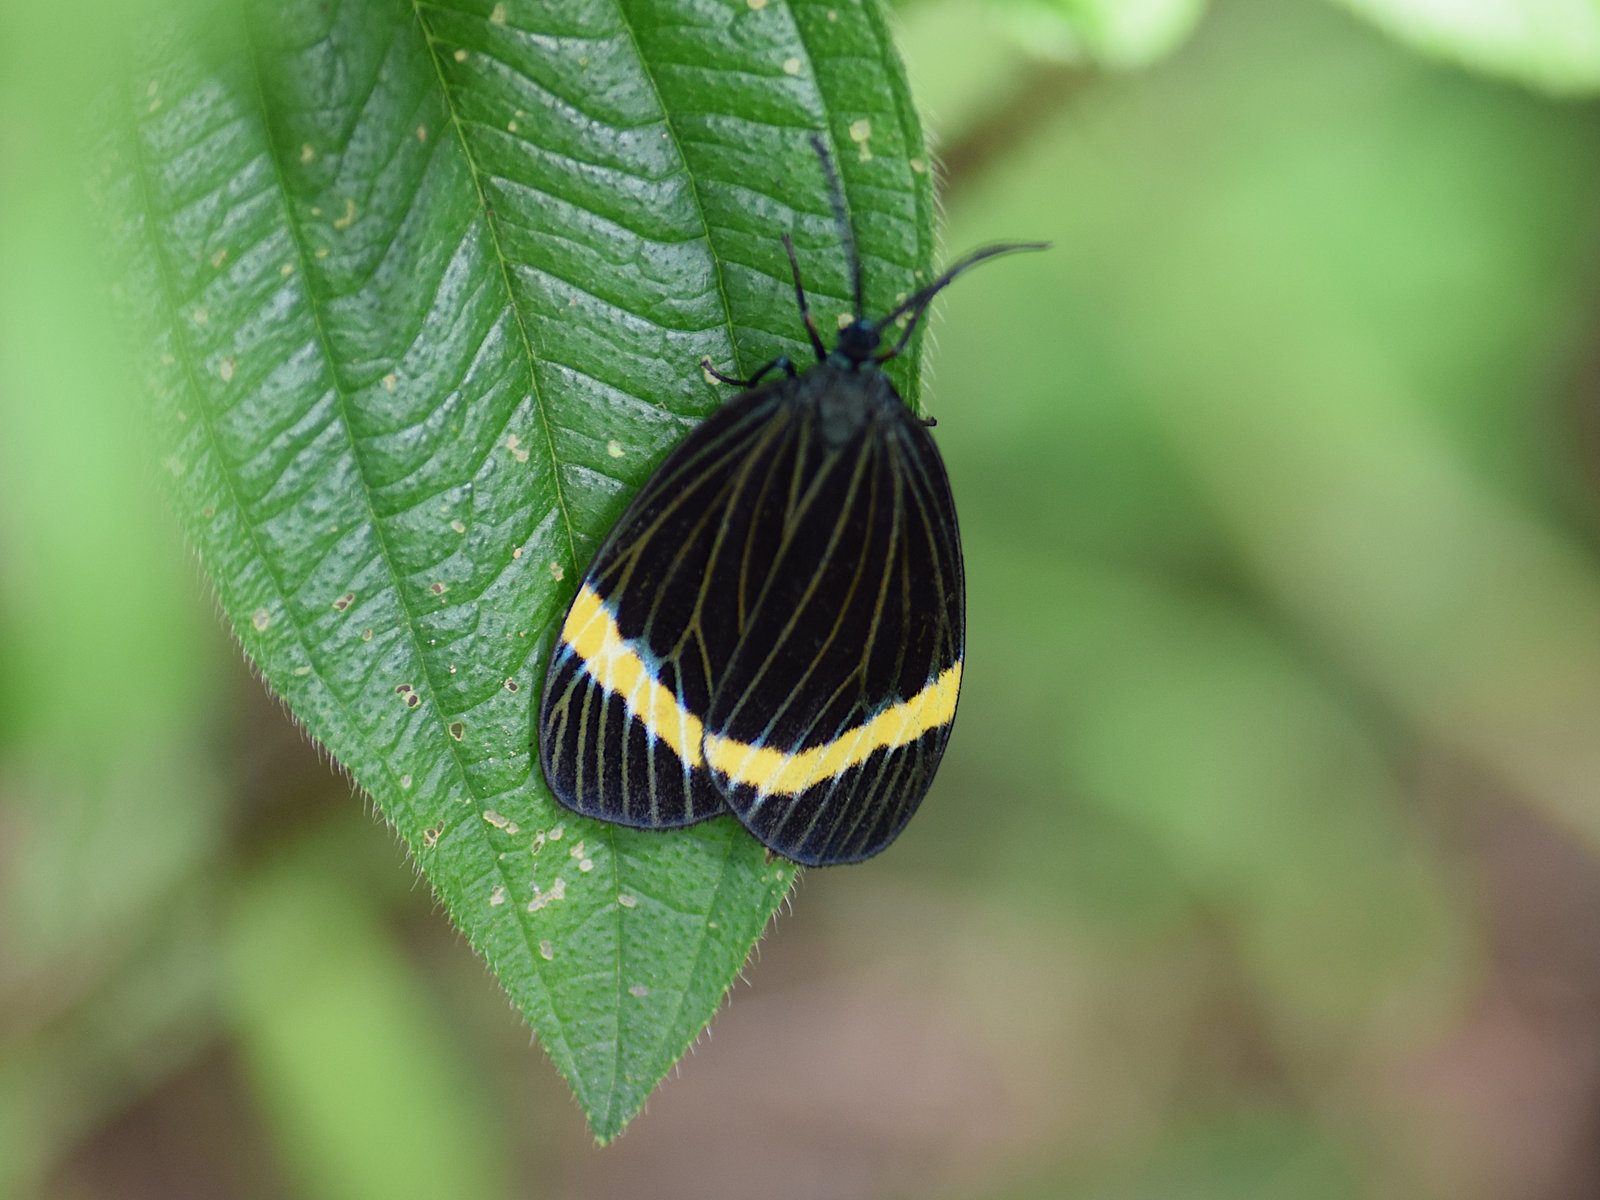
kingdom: Animalia
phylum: Arthropoda
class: Insecta
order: Lepidoptera
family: Zygaenidae
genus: Pidorus
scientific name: Pidorus circe
